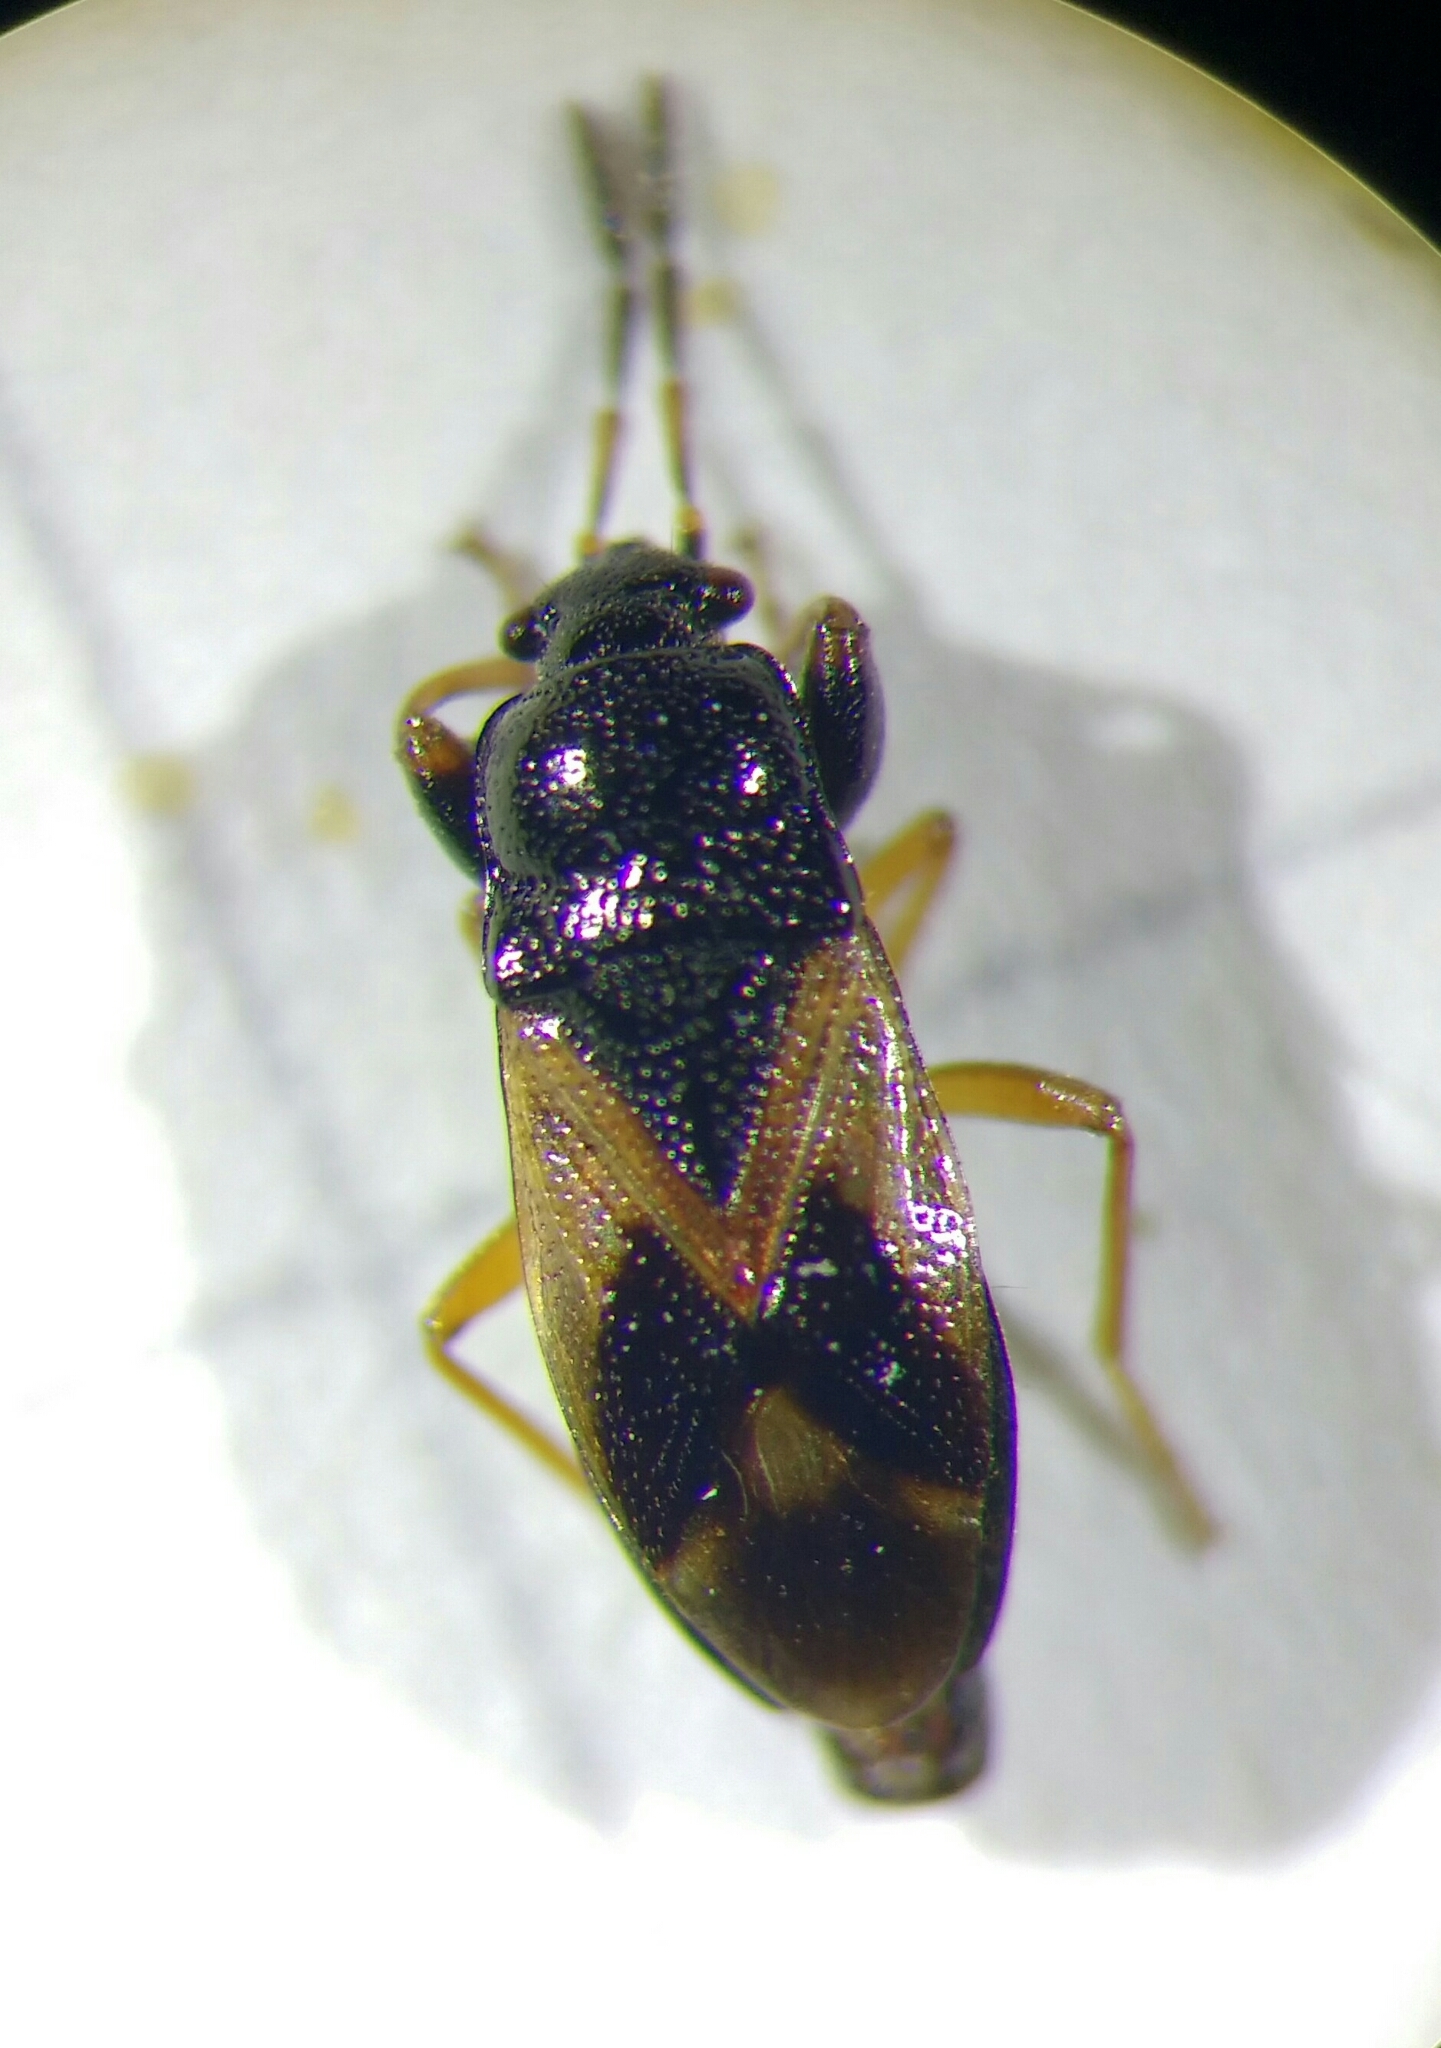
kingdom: Animalia
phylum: Arthropoda
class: Insecta
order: Hemiptera
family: Rhyparochromidae
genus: Megalonotus
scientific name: Megalonotus praetextatus
